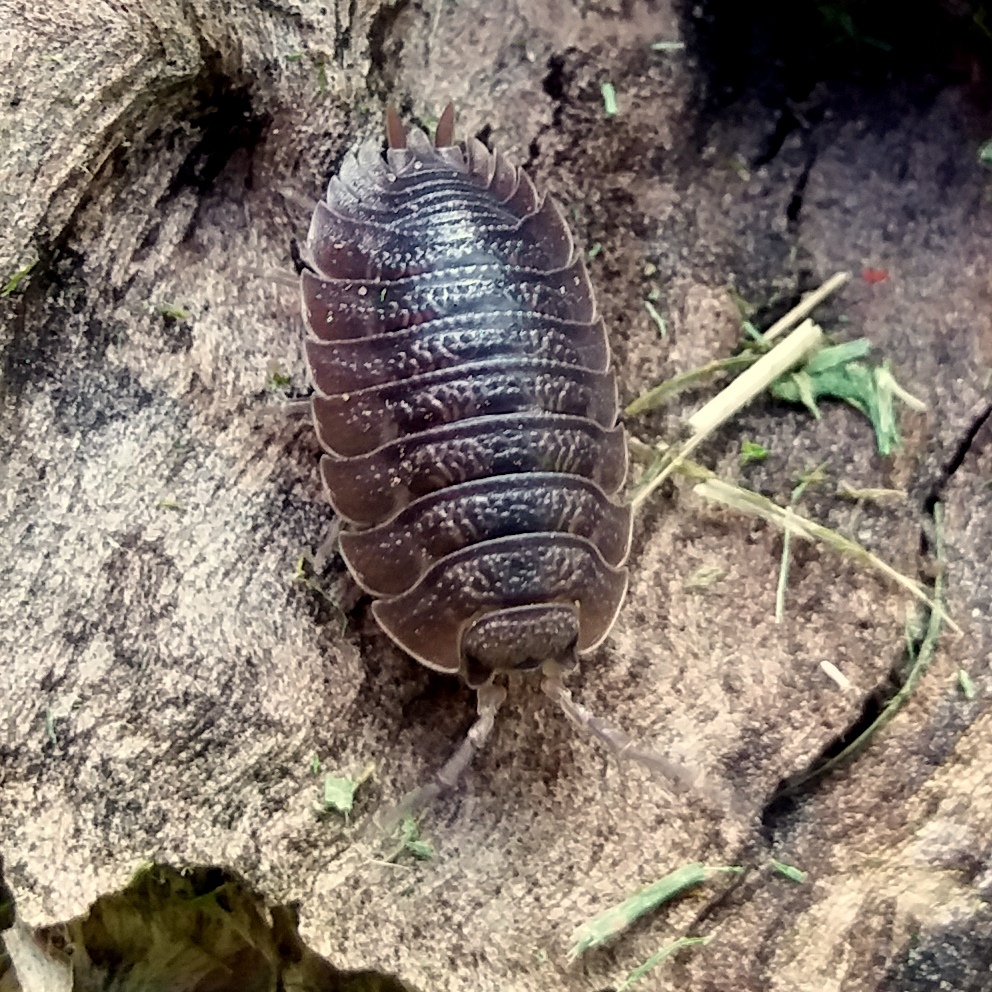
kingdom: Animalia
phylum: Arthropoda
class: Malacostraca
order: Isopoda
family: Porcellionidae
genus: Porcellio
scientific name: Porcellio dilatatus
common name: Isopod
